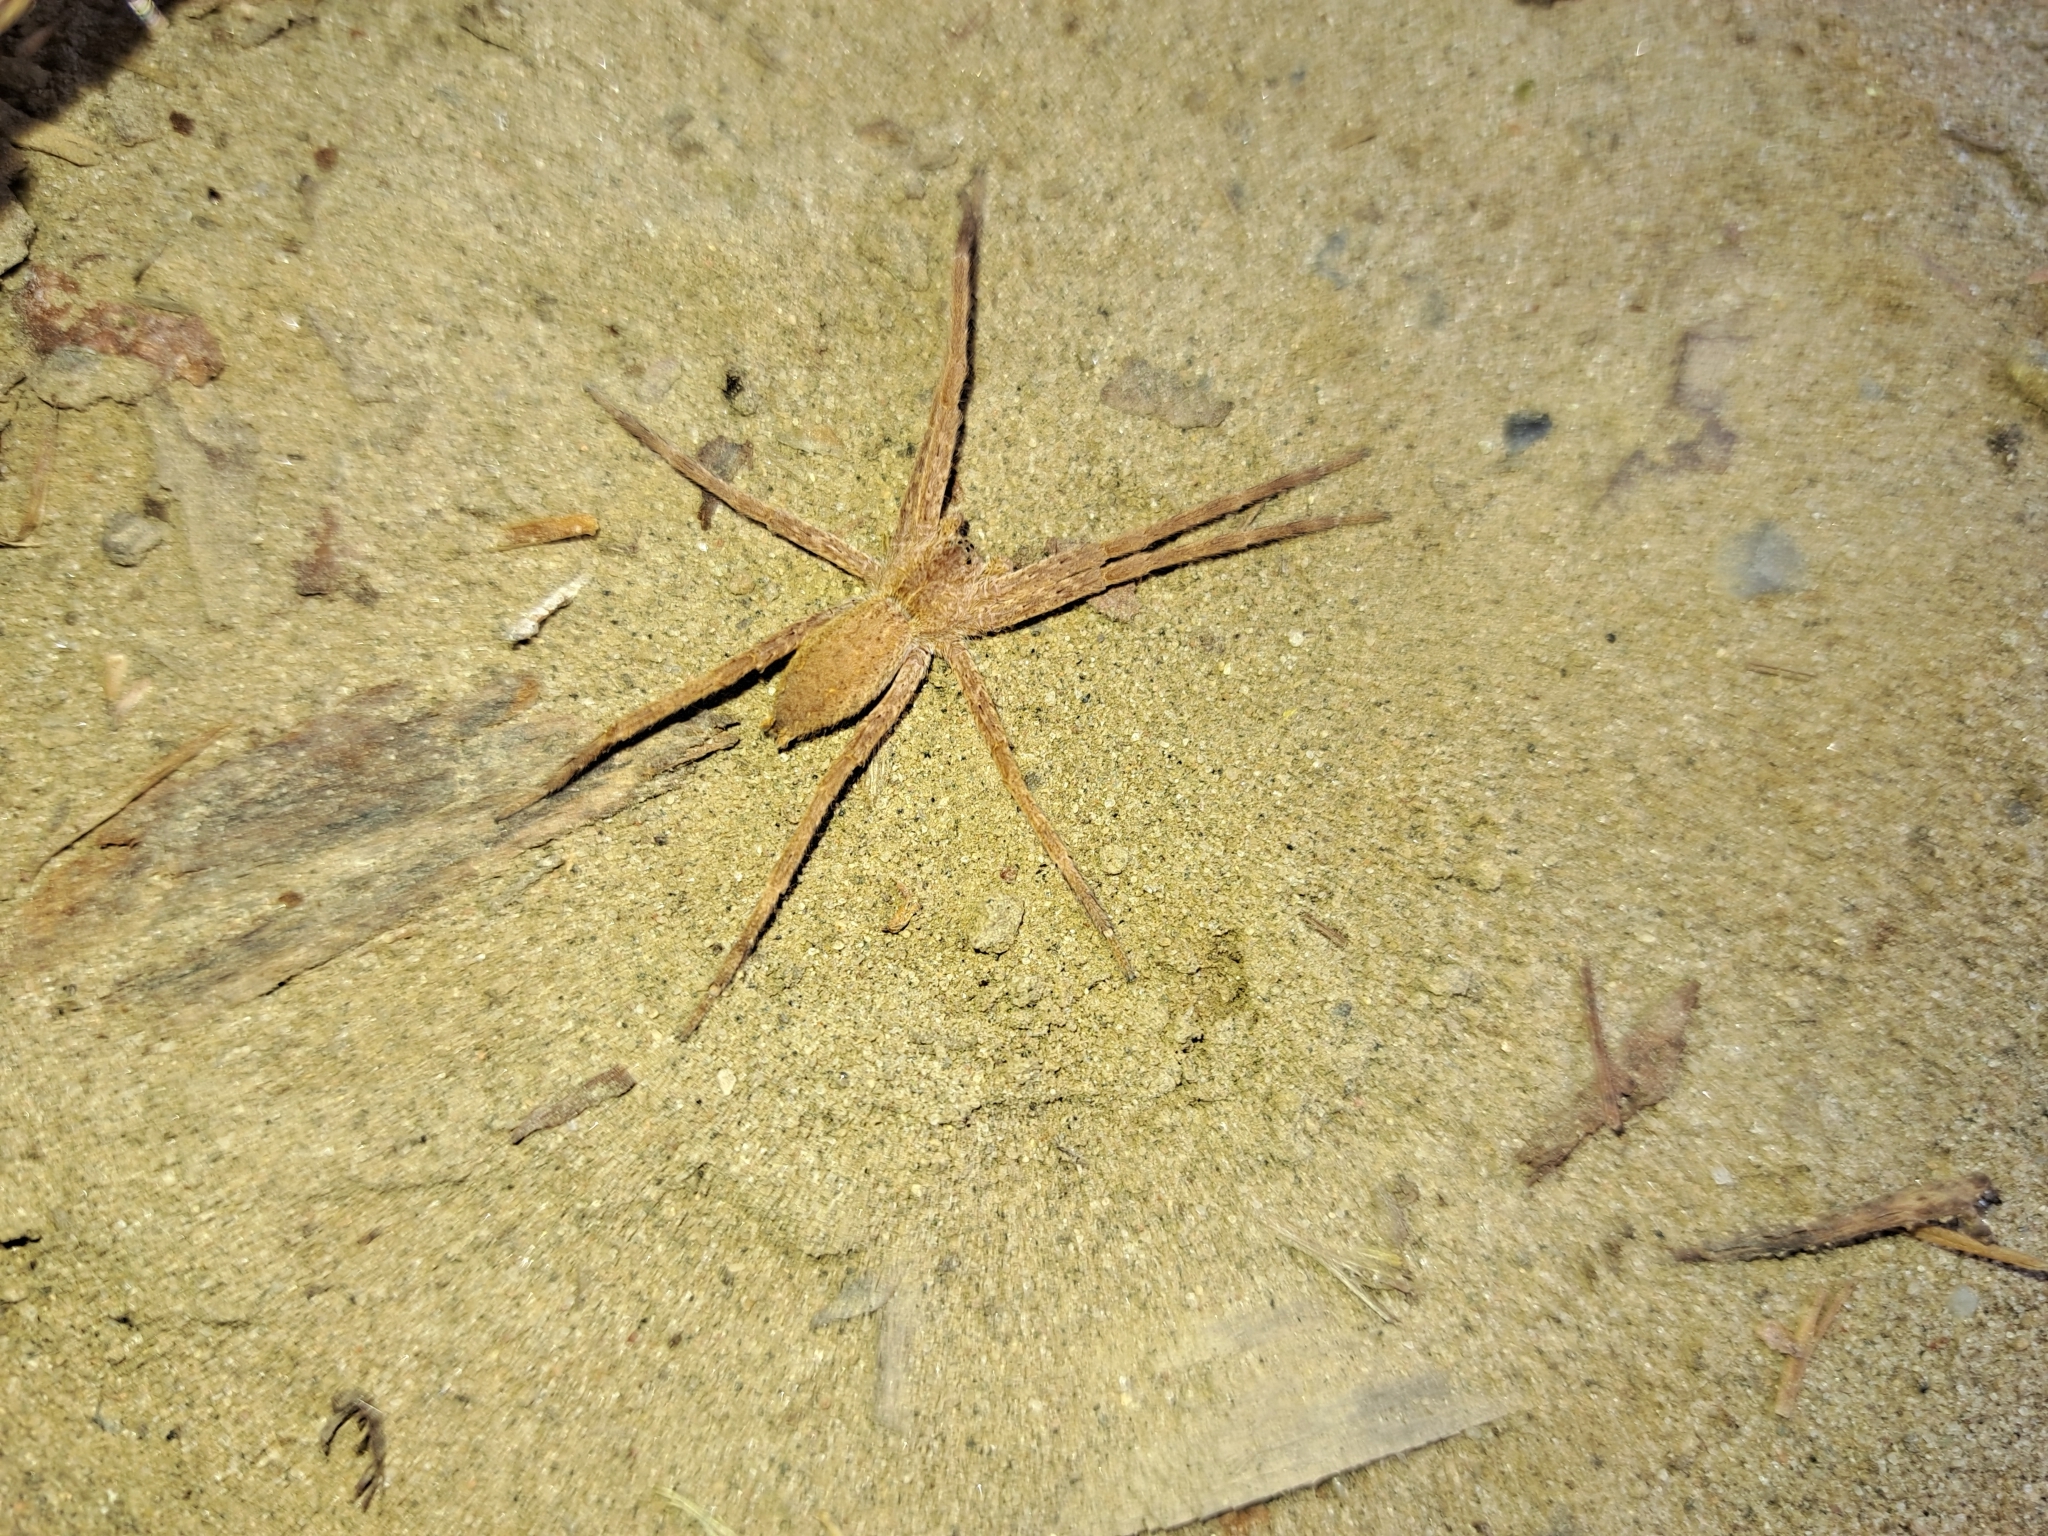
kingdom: Animalia
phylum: Arthropoda
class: Arachnida
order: Araneae
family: Pisauridae
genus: Pisaurina
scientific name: Pisaurina mira
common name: American nursery web spider
